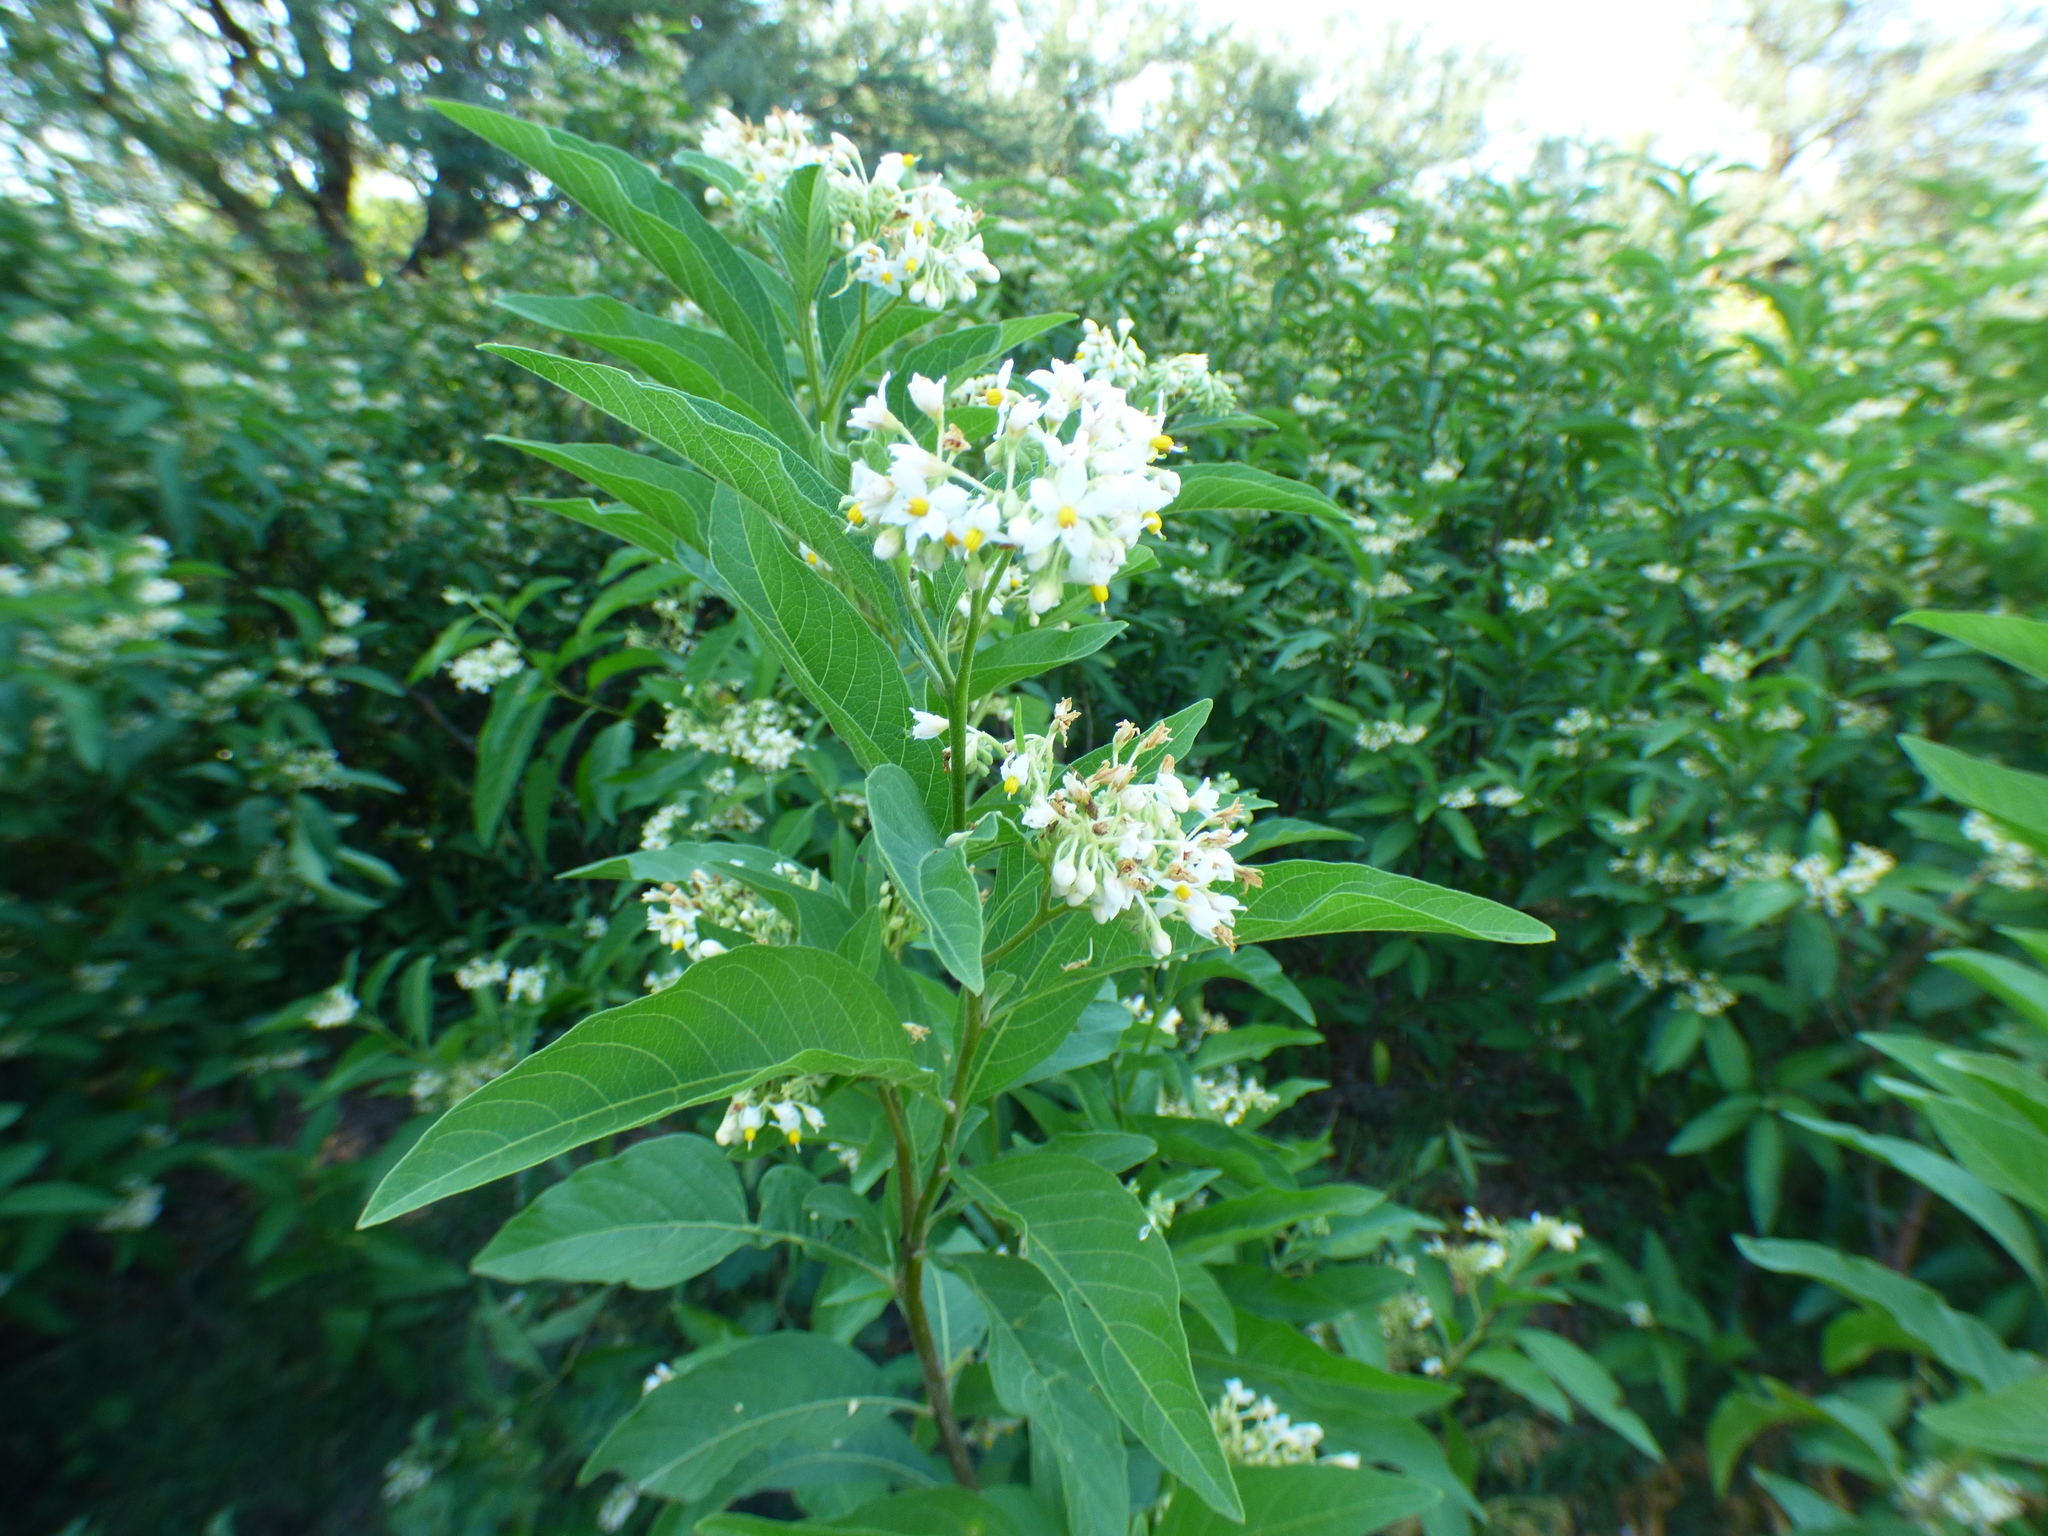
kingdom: Plantae
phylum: Tracheophyta
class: Magnoliopsida
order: Solanales
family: Solanaceae
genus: Solanum
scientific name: Solanum argentinum
